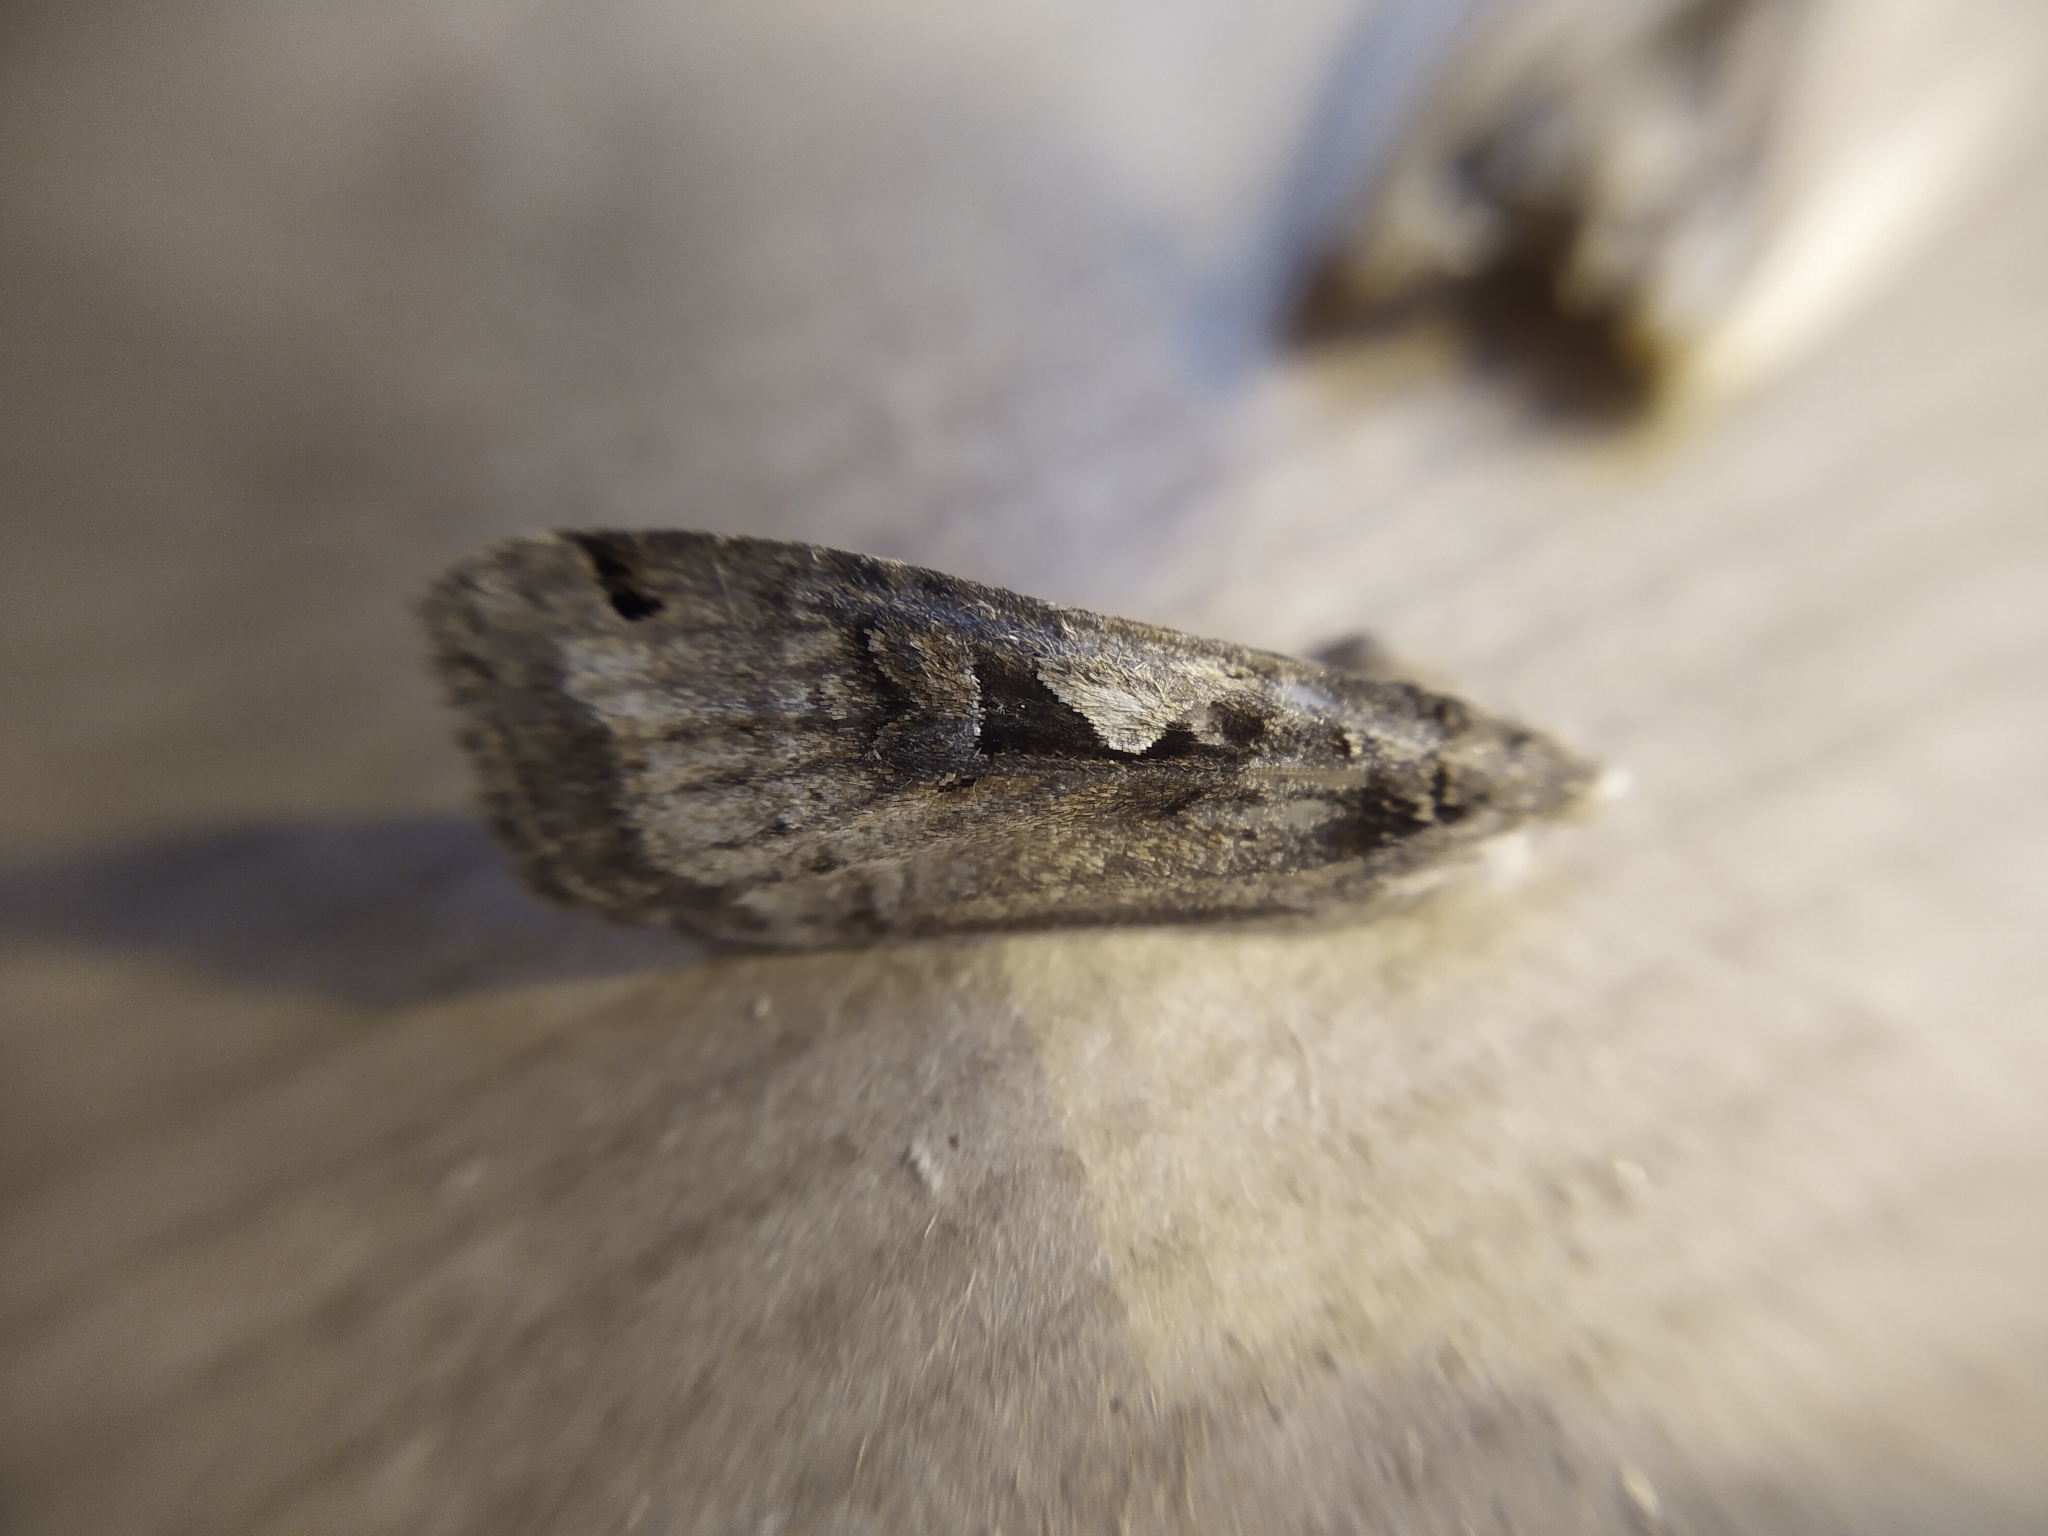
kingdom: Animalia
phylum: Arthropoda
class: Insecta
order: Lepidoptera
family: Noctuidae
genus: Xestia
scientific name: Xestia c-nigrum
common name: Setaceous hebrew character
